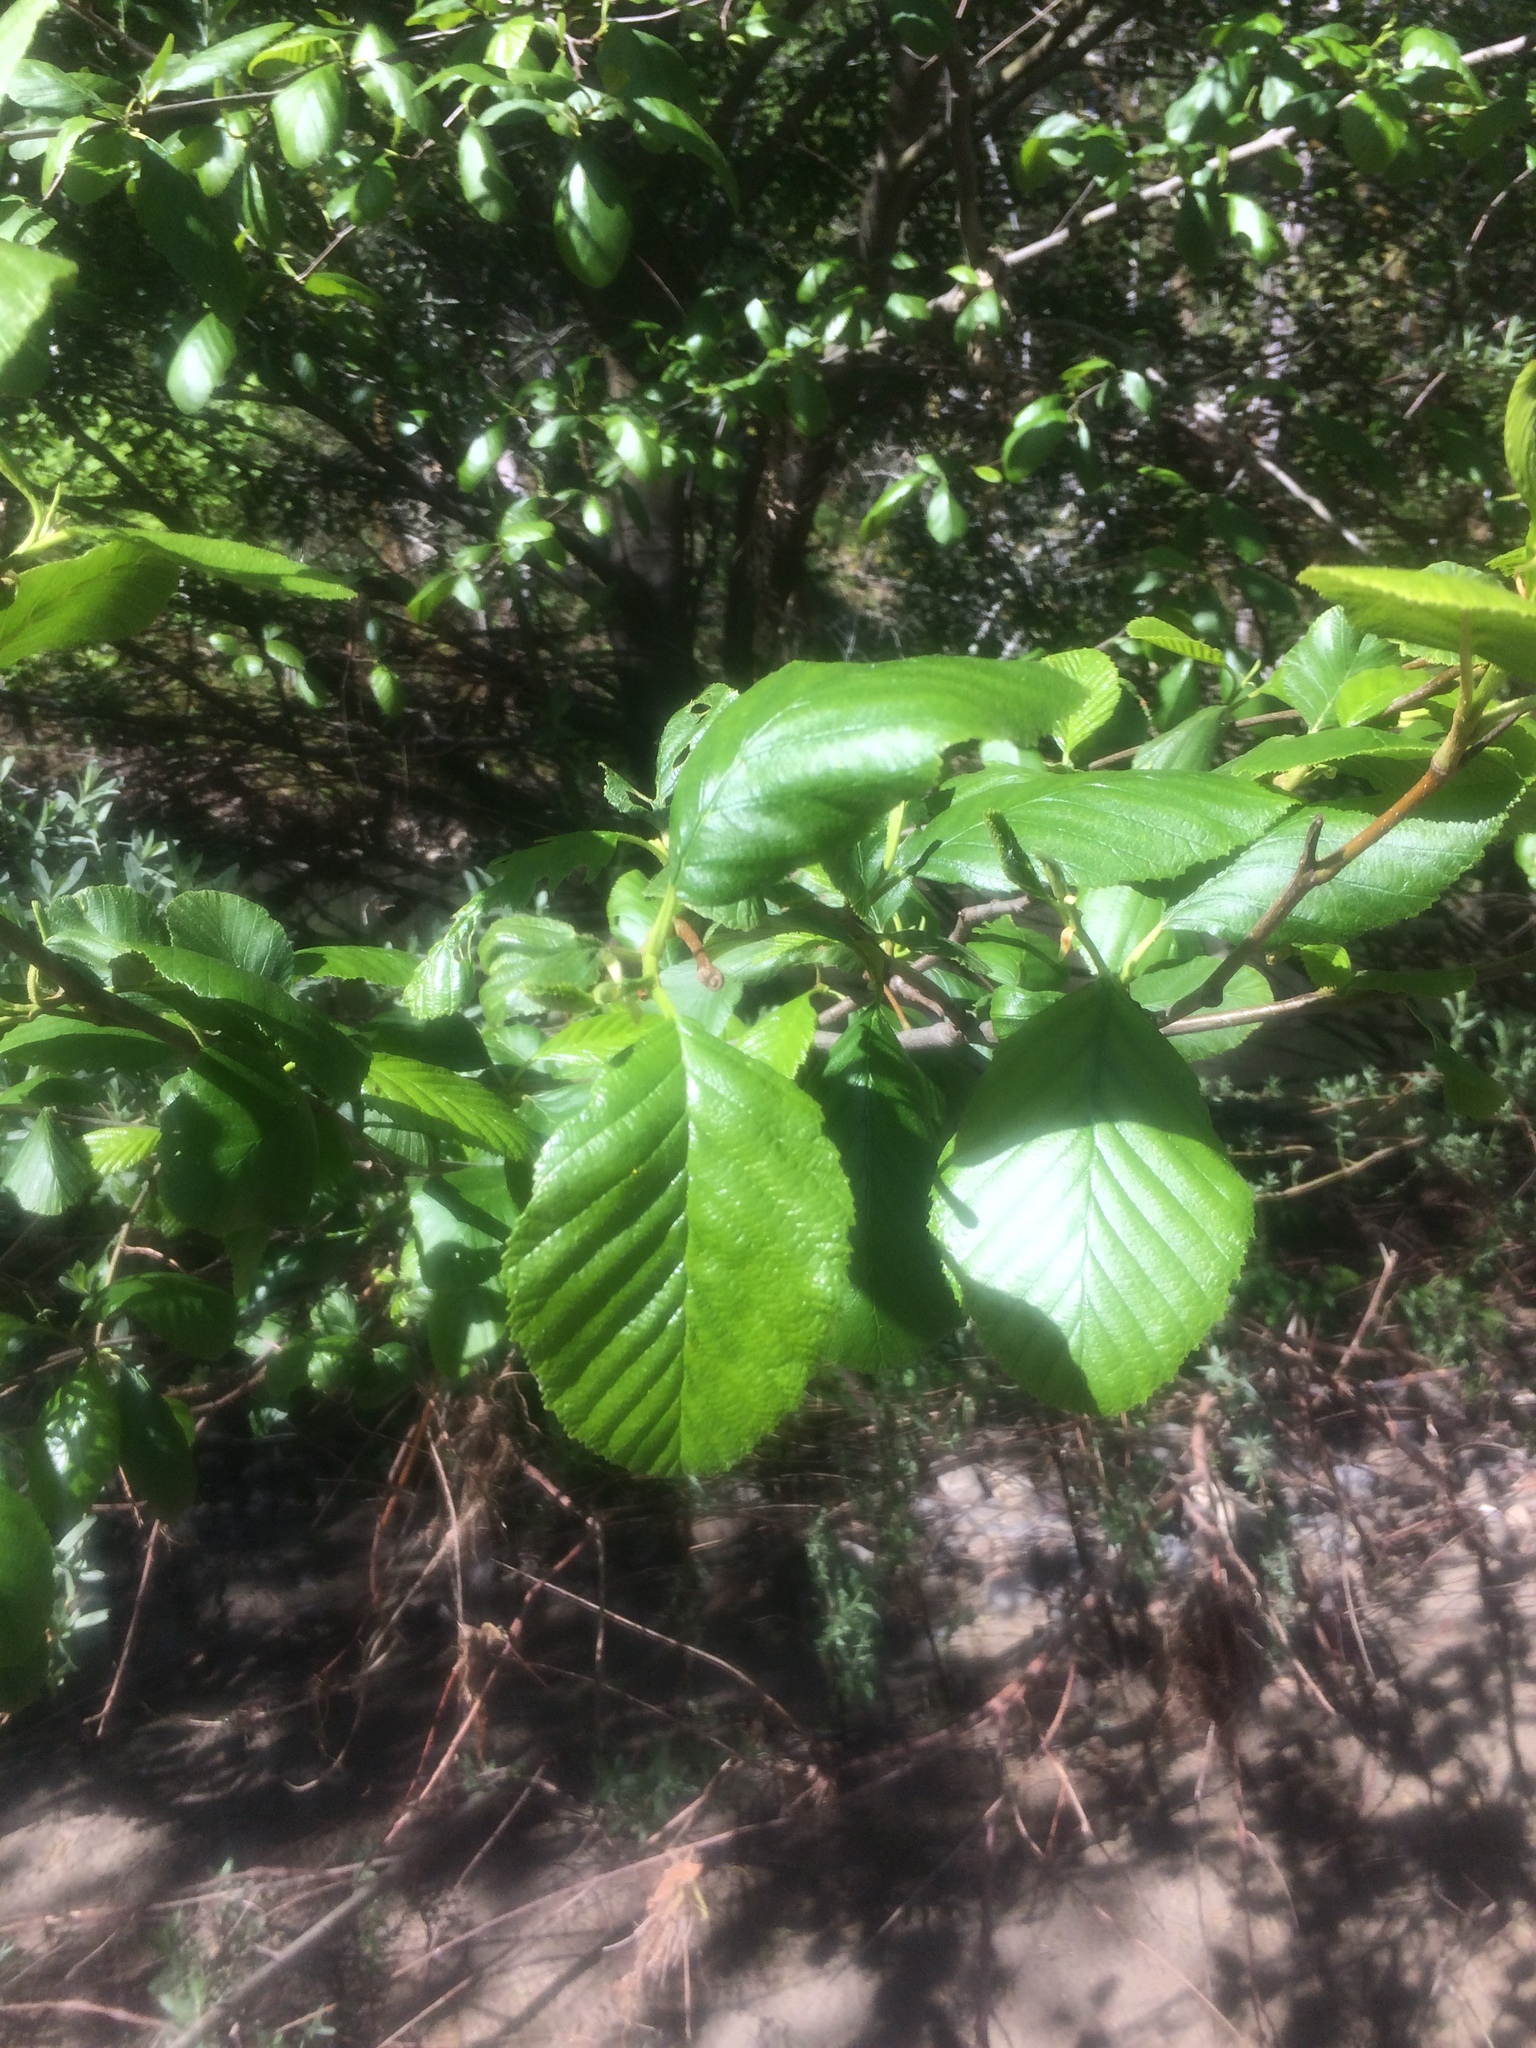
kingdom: Plantae
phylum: Tracheophyta
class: Magnoliopsida
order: Fagales
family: Betulaceae
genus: Alnus
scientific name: Alnus rhombifolia
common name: California alder
